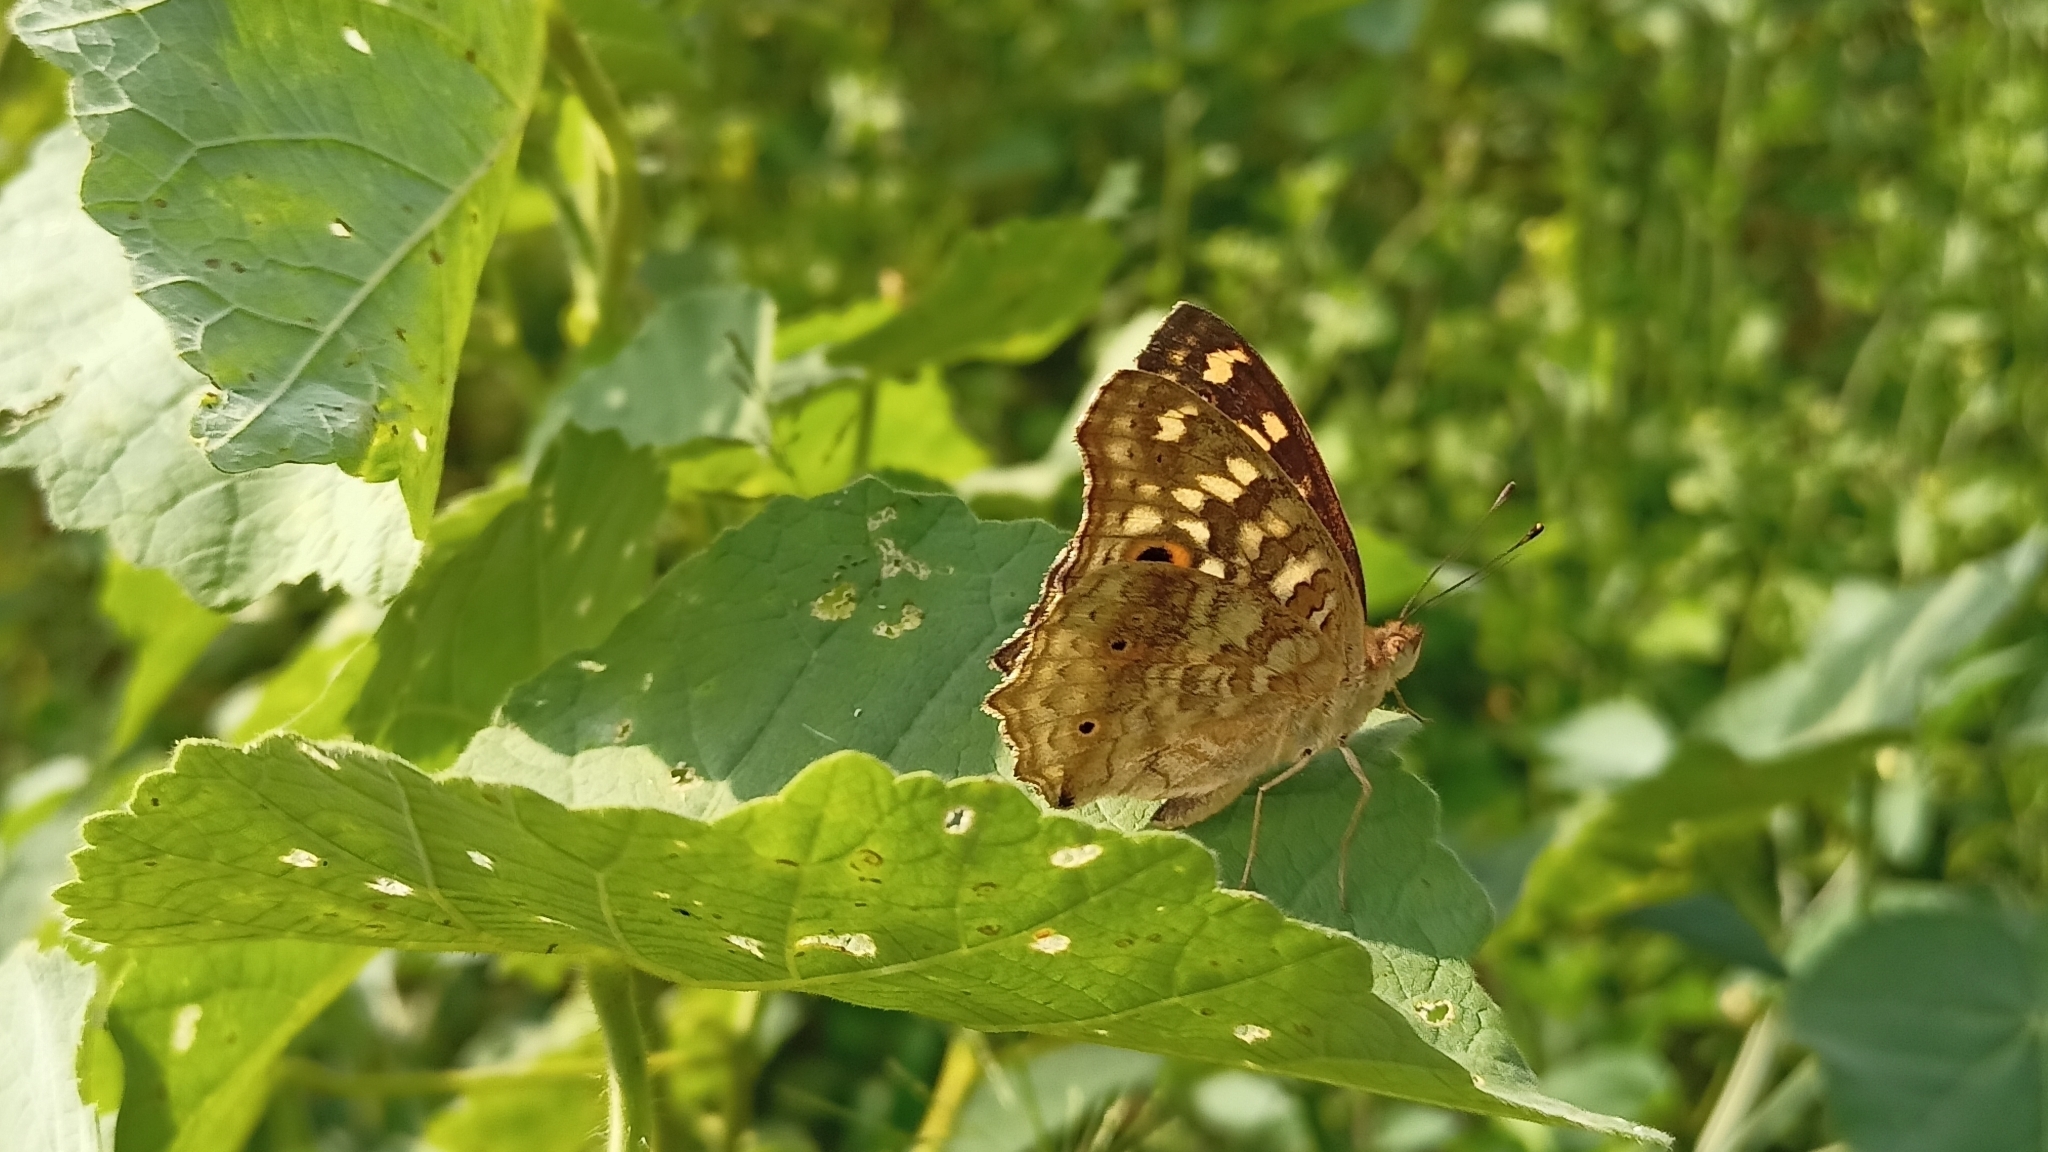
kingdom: Animalia
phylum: Arthropoda
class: Insecta
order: Lepidoptera
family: Nymphalidae
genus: Junonia
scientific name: Junonia lemonias
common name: Lemon pansy
